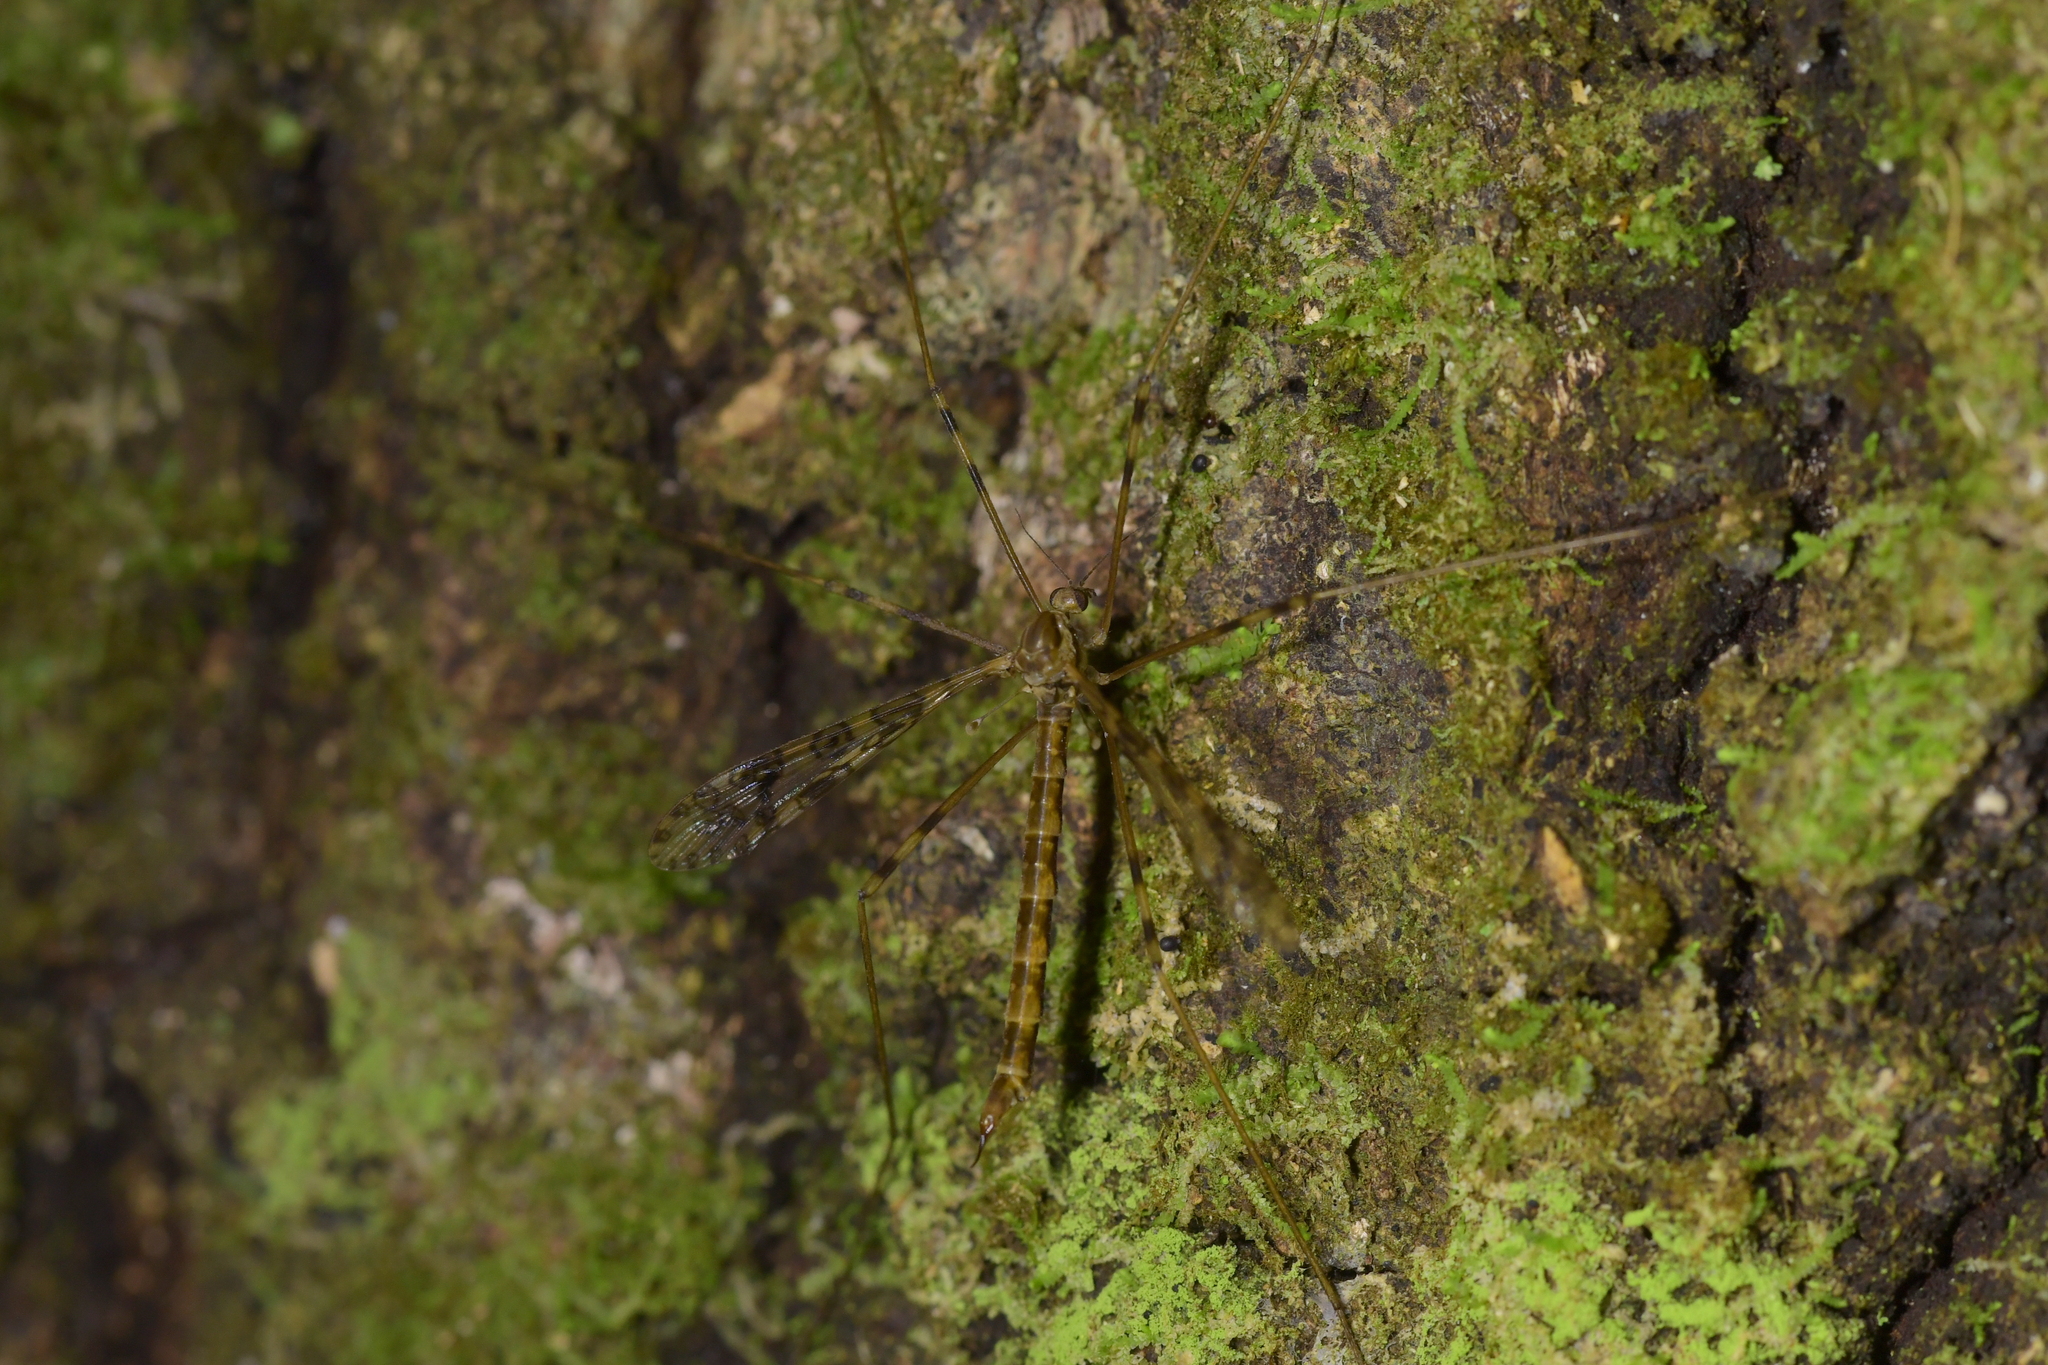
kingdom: Animalia
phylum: Arthropoda
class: Insecta
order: Diptera
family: Limoniidae
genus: Austrolimnophila
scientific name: Austrolimnophila argus
